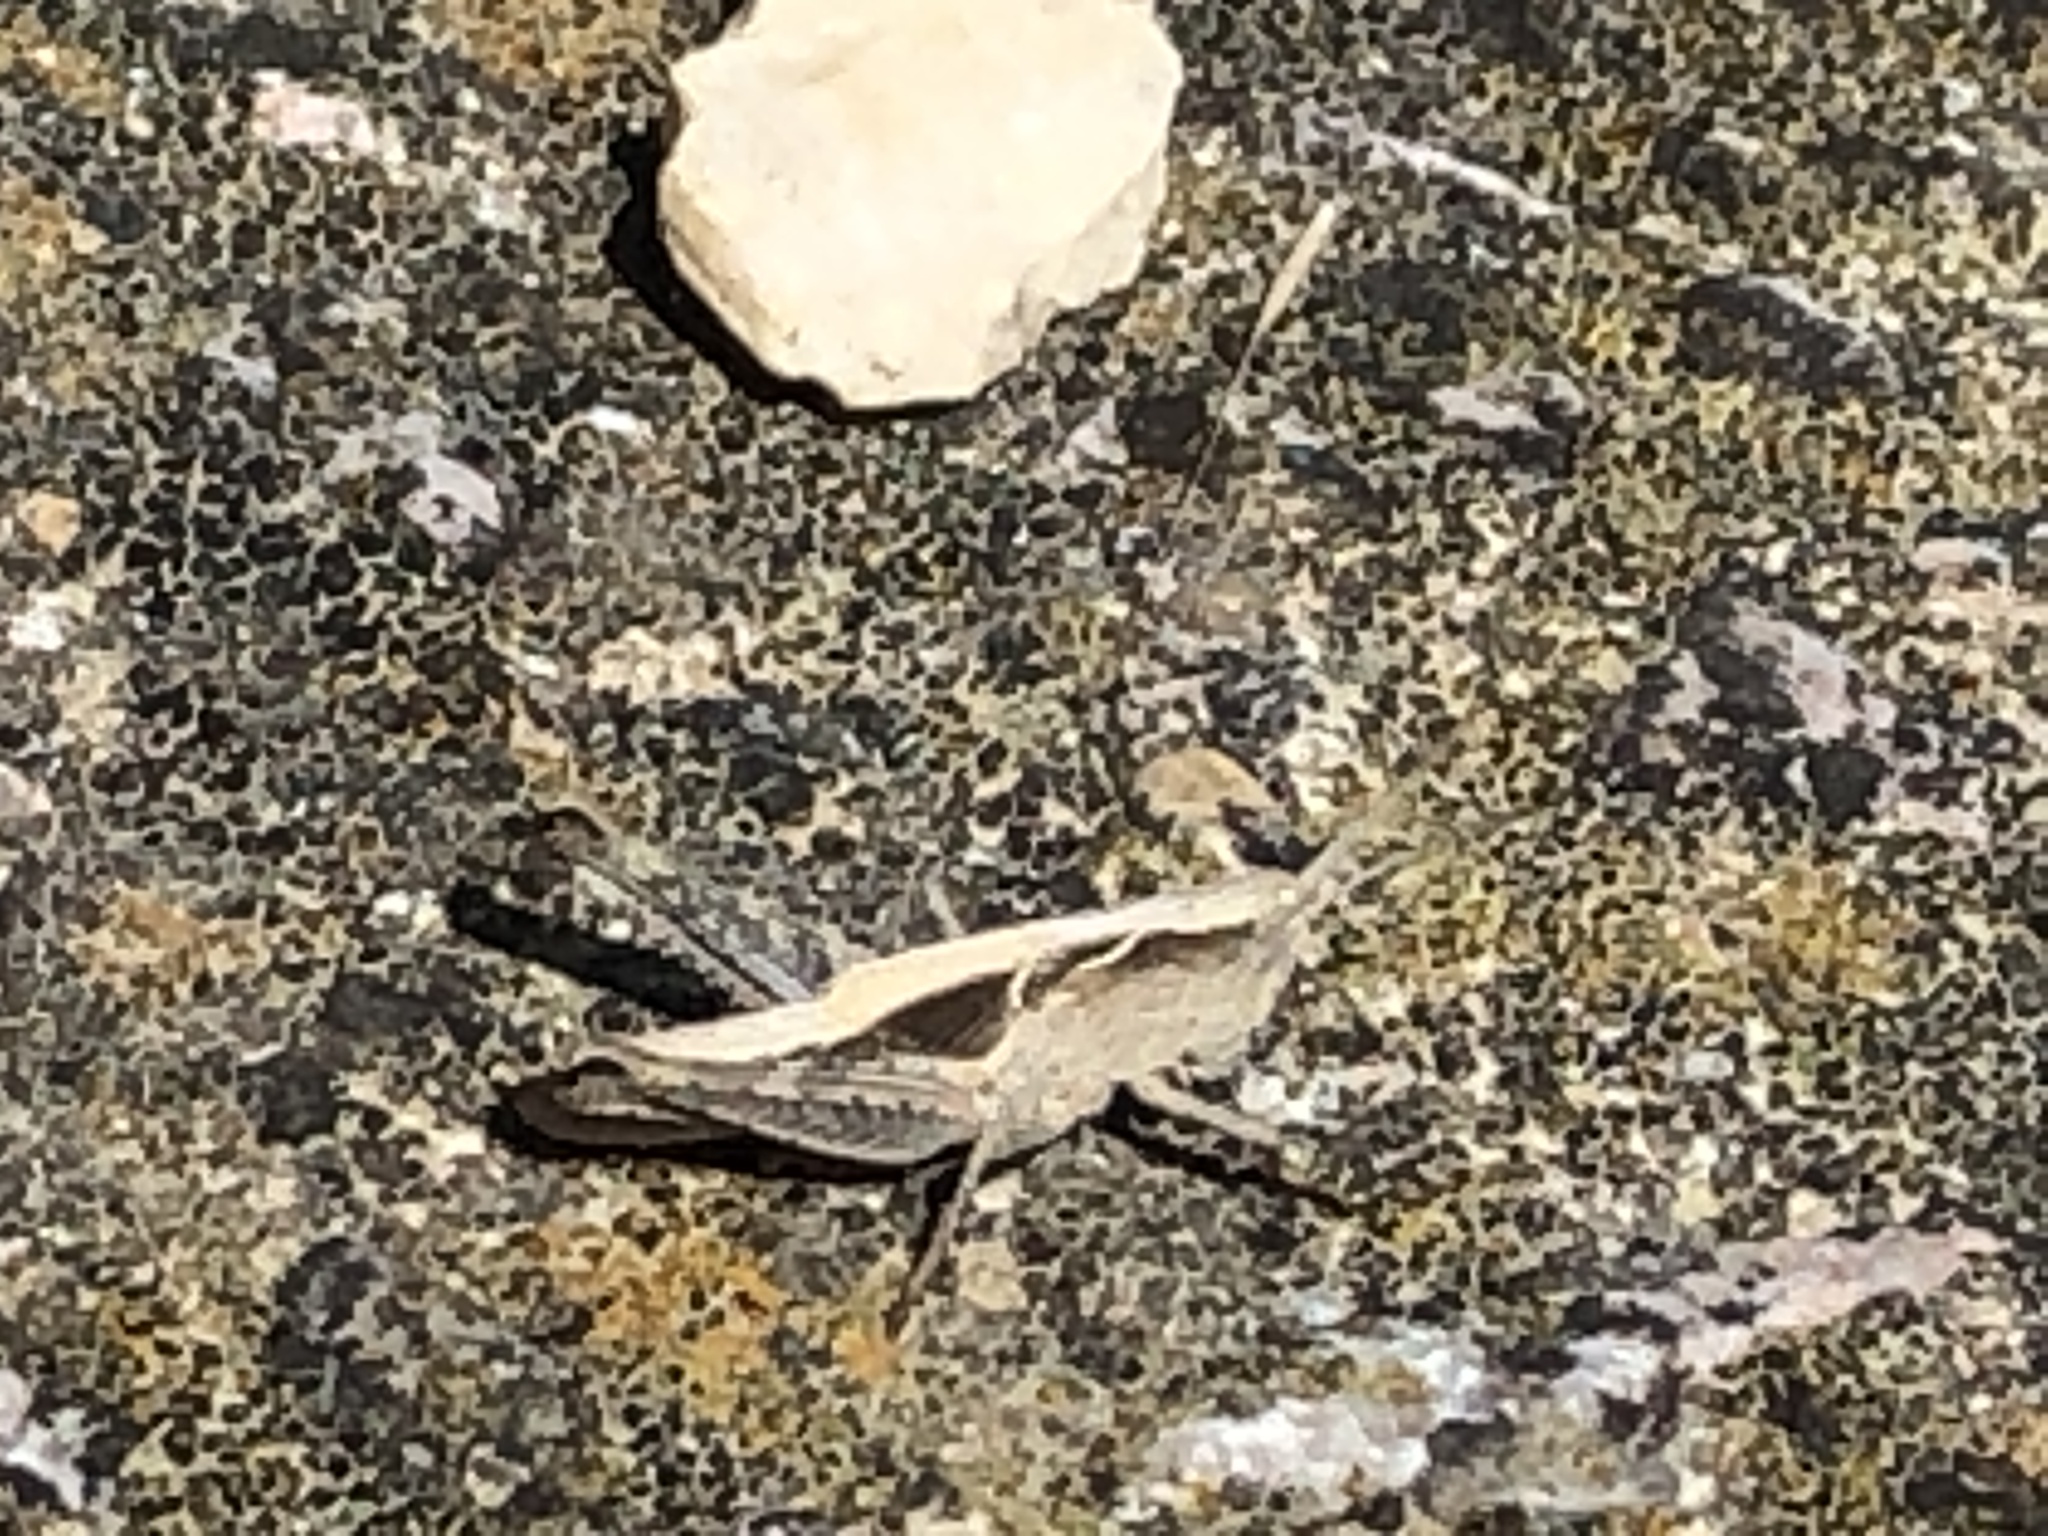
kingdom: Animalia
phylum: Arthropoda
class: Insecta
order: Orthoptera
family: Acrididae
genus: Chorthippus
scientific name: Chorthippus brunneus
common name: Field grasshopper
